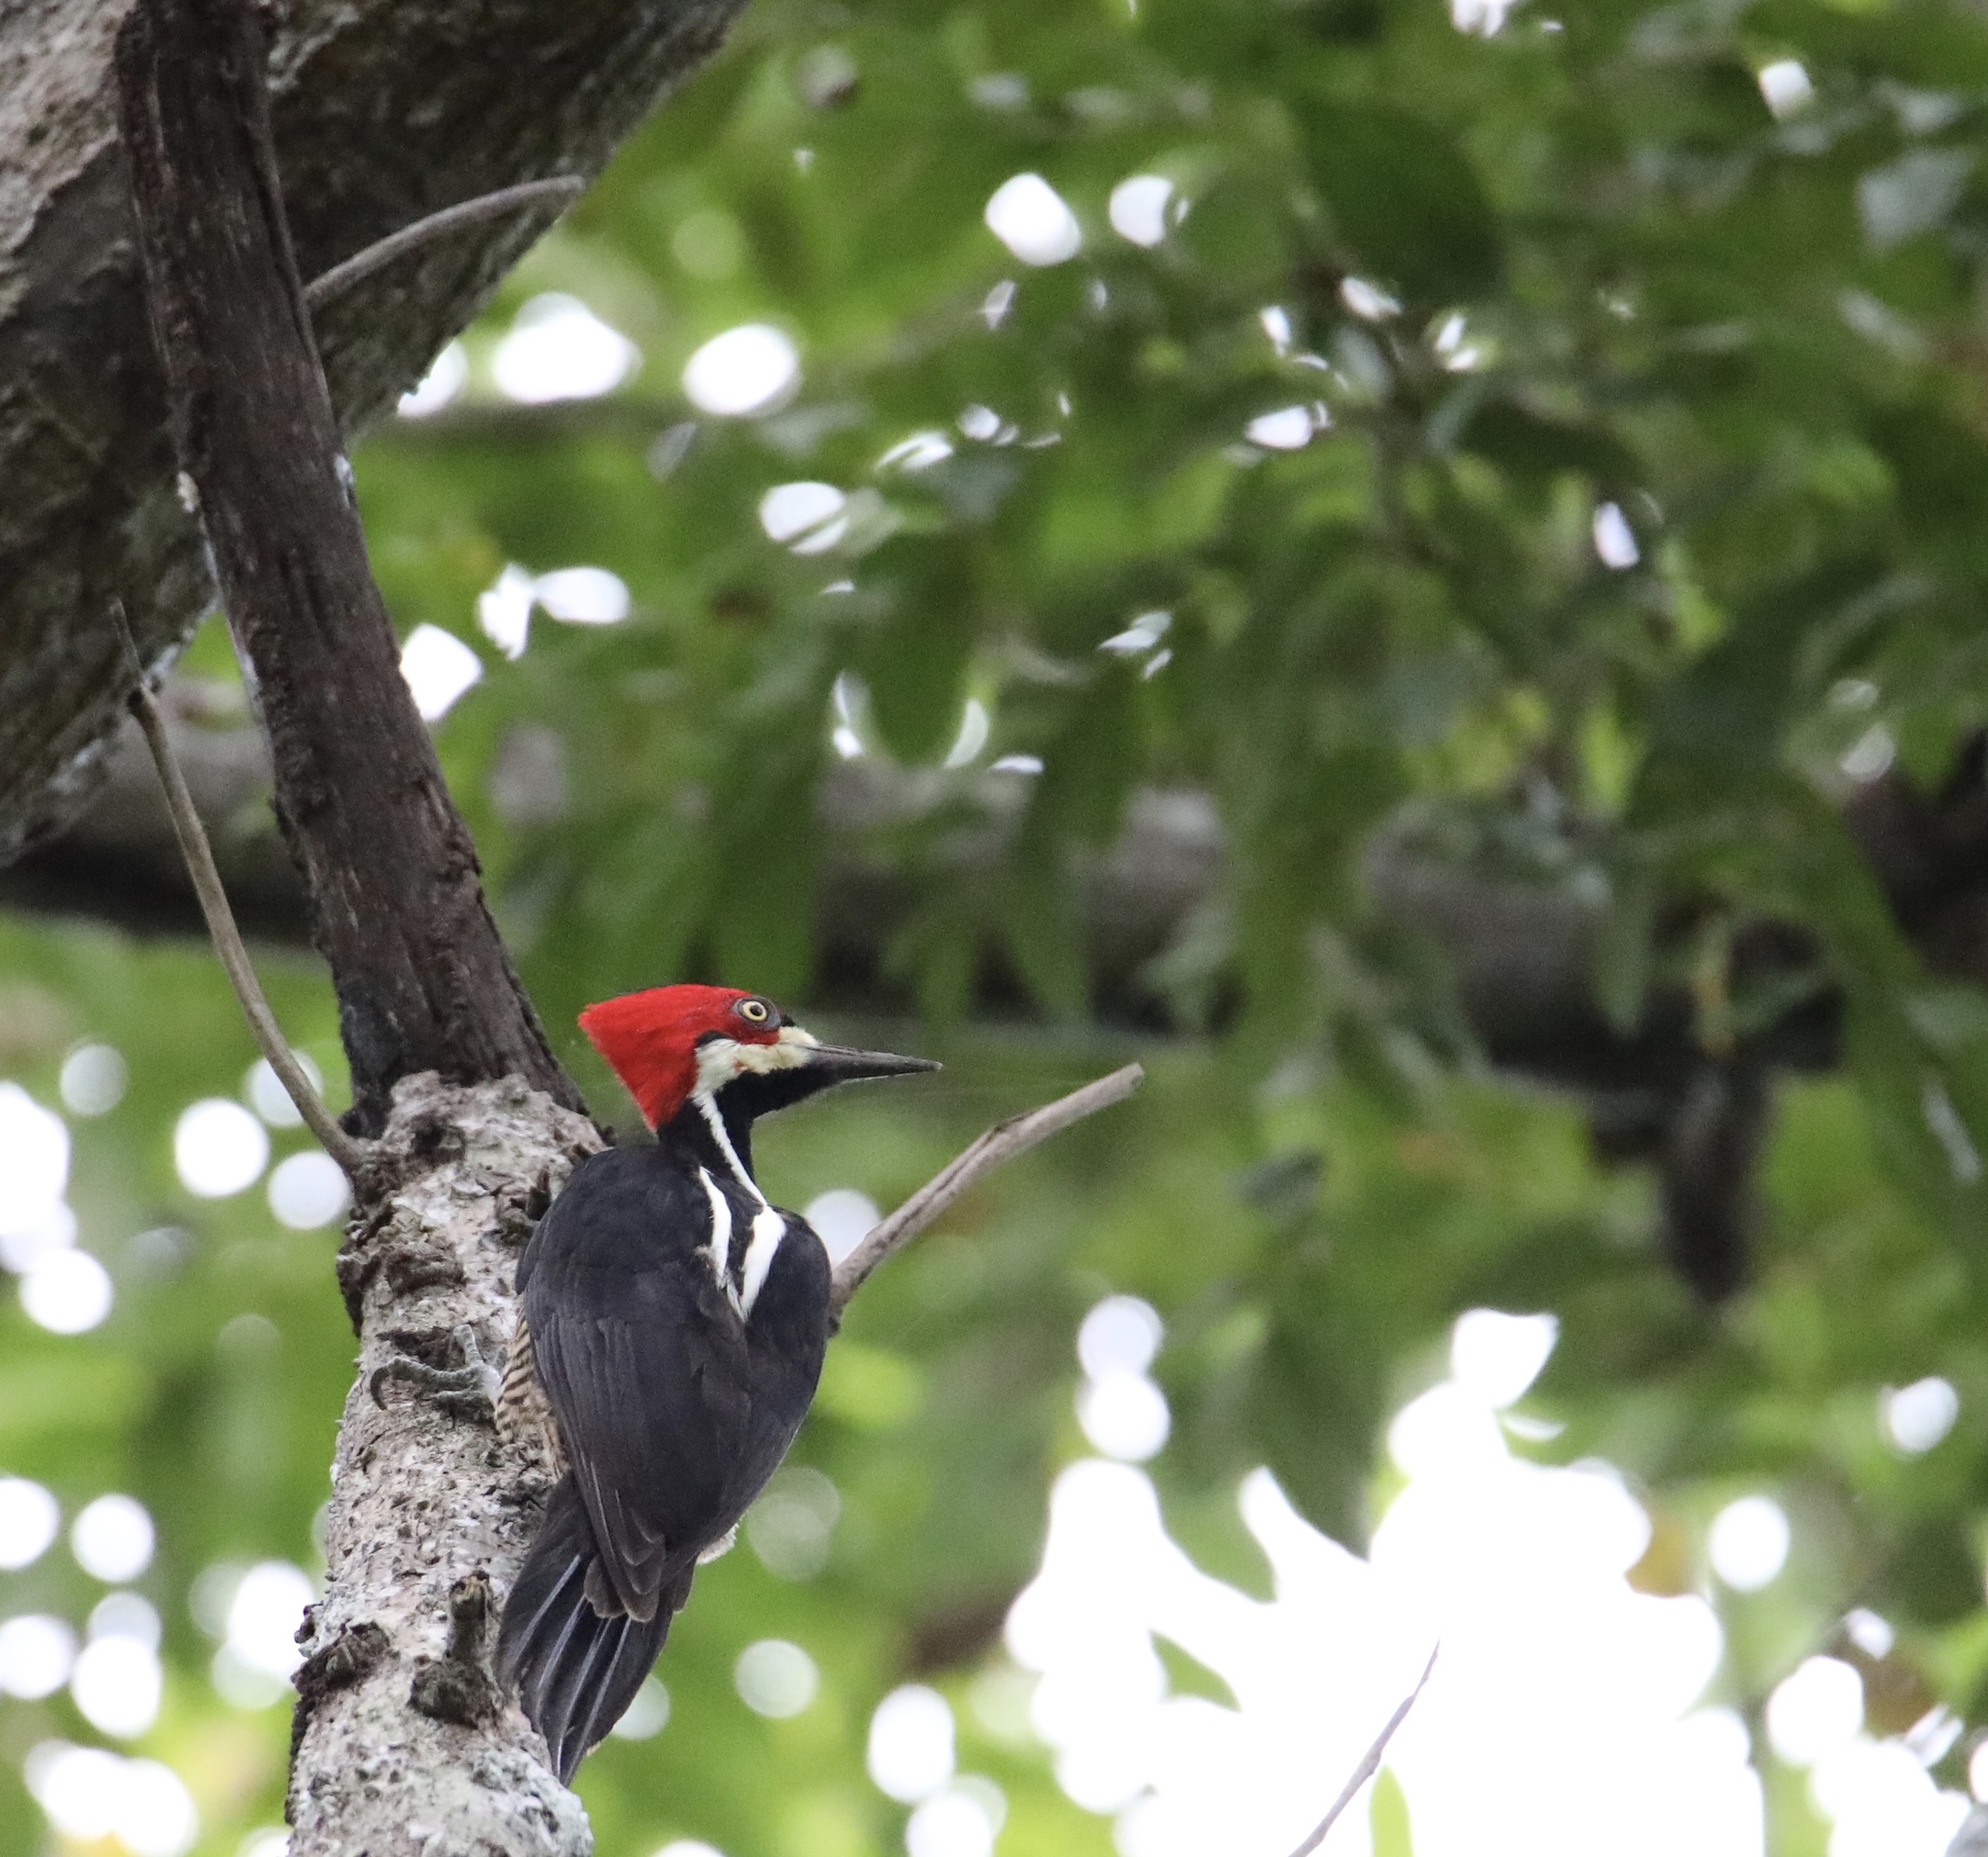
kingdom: Animalia
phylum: Chordata
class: Aves
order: Piciformes
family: Picidae
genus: Campephilus
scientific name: Campephilus melanoleucos
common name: Crimson-crested woodpecker
